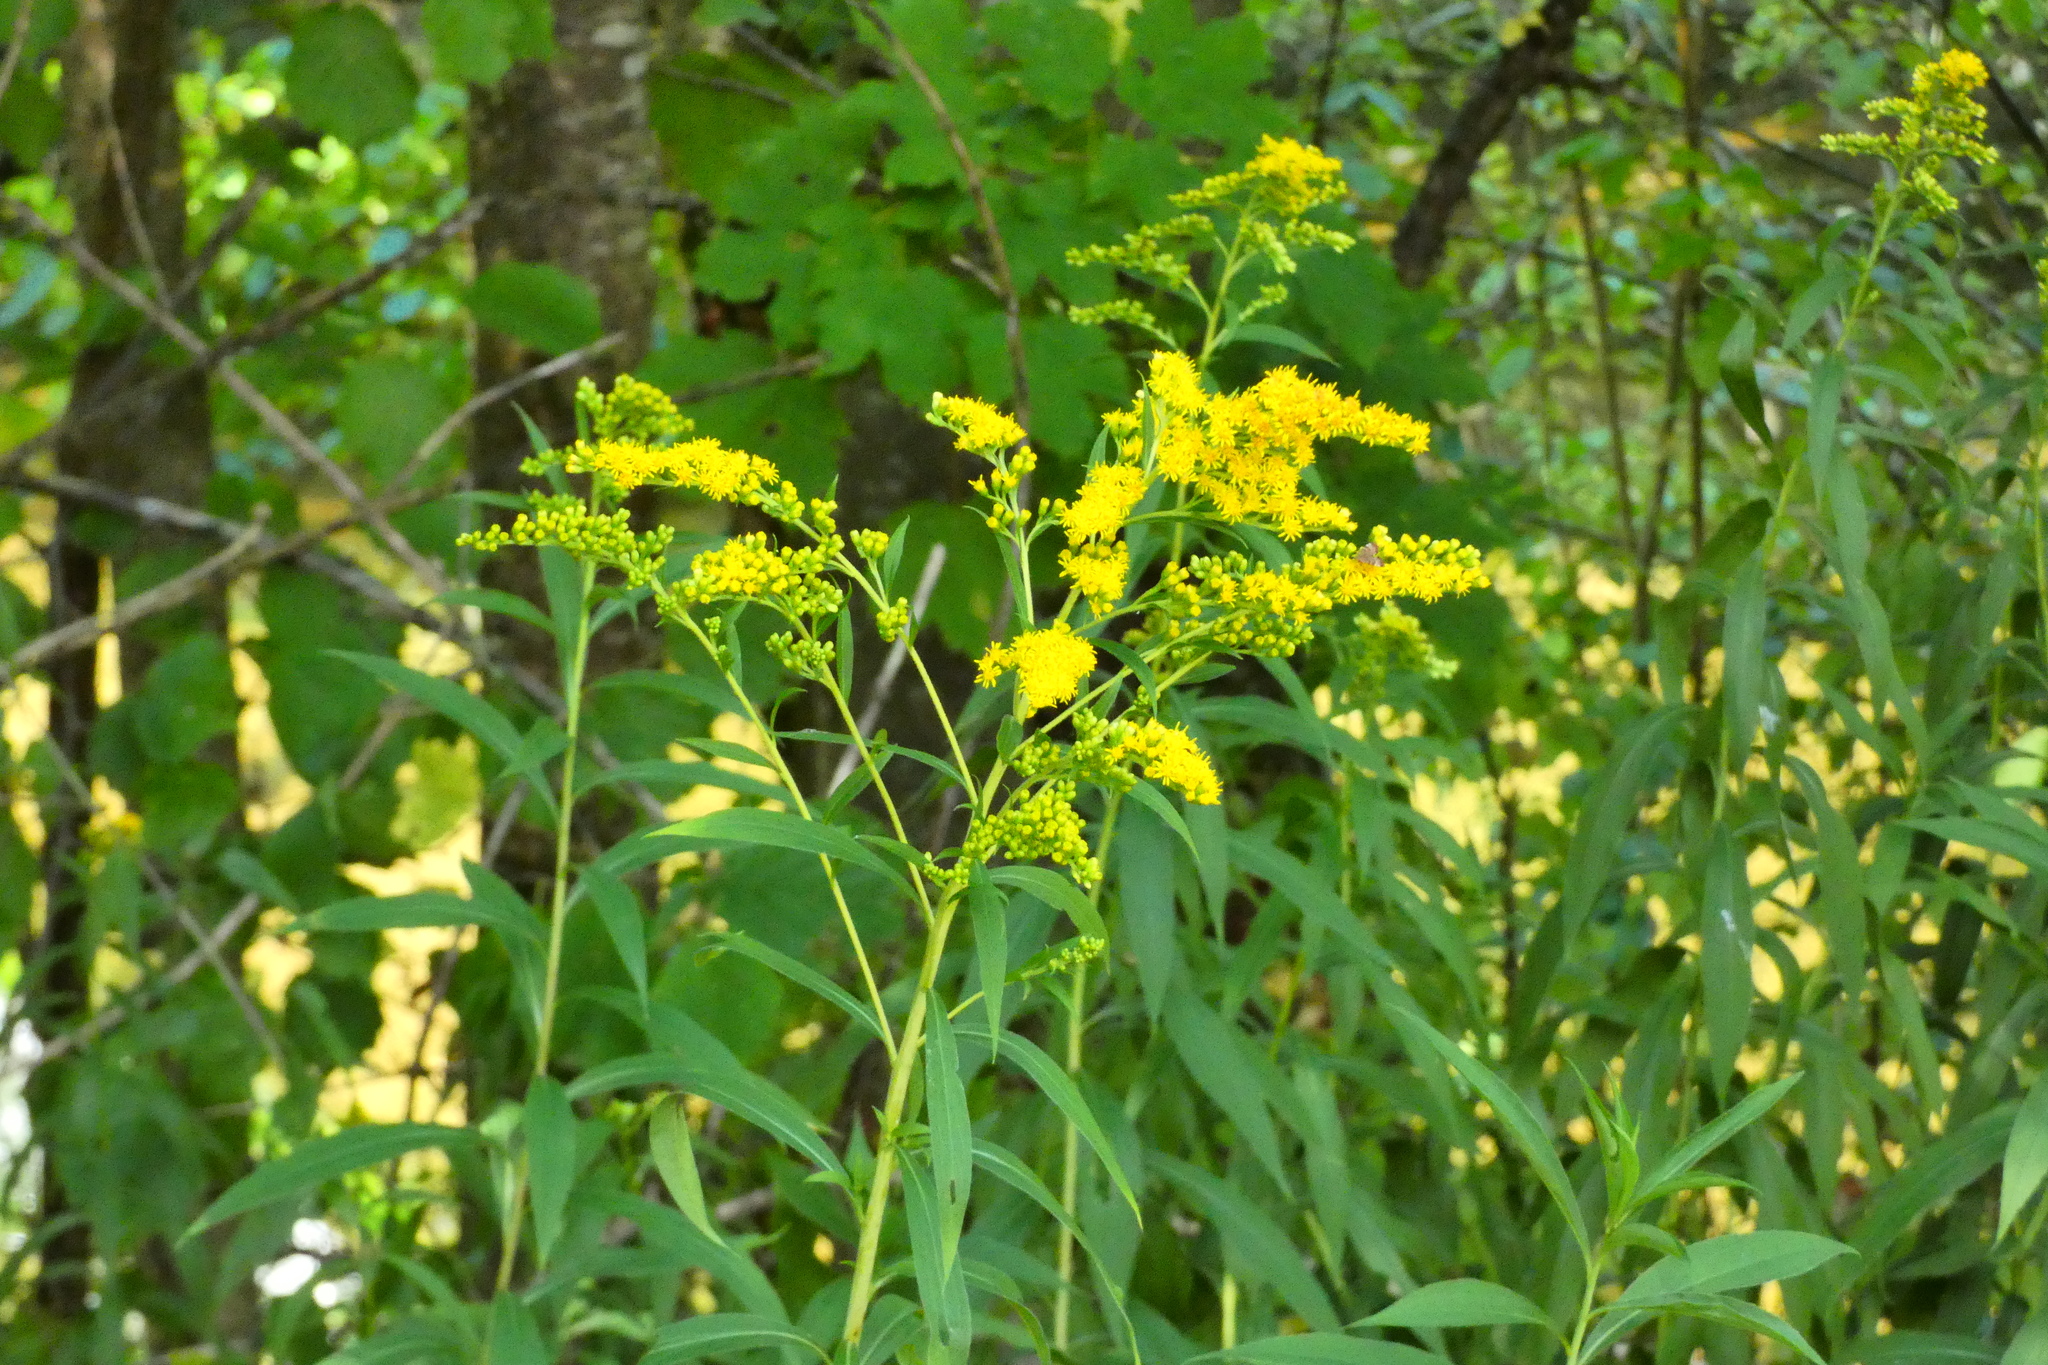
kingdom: Plantae
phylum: Tracheophyta
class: Magnoliopsida
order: Asterales
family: Asteraceae
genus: Solidago
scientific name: Solidago gigantea
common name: Giant goldenrod
